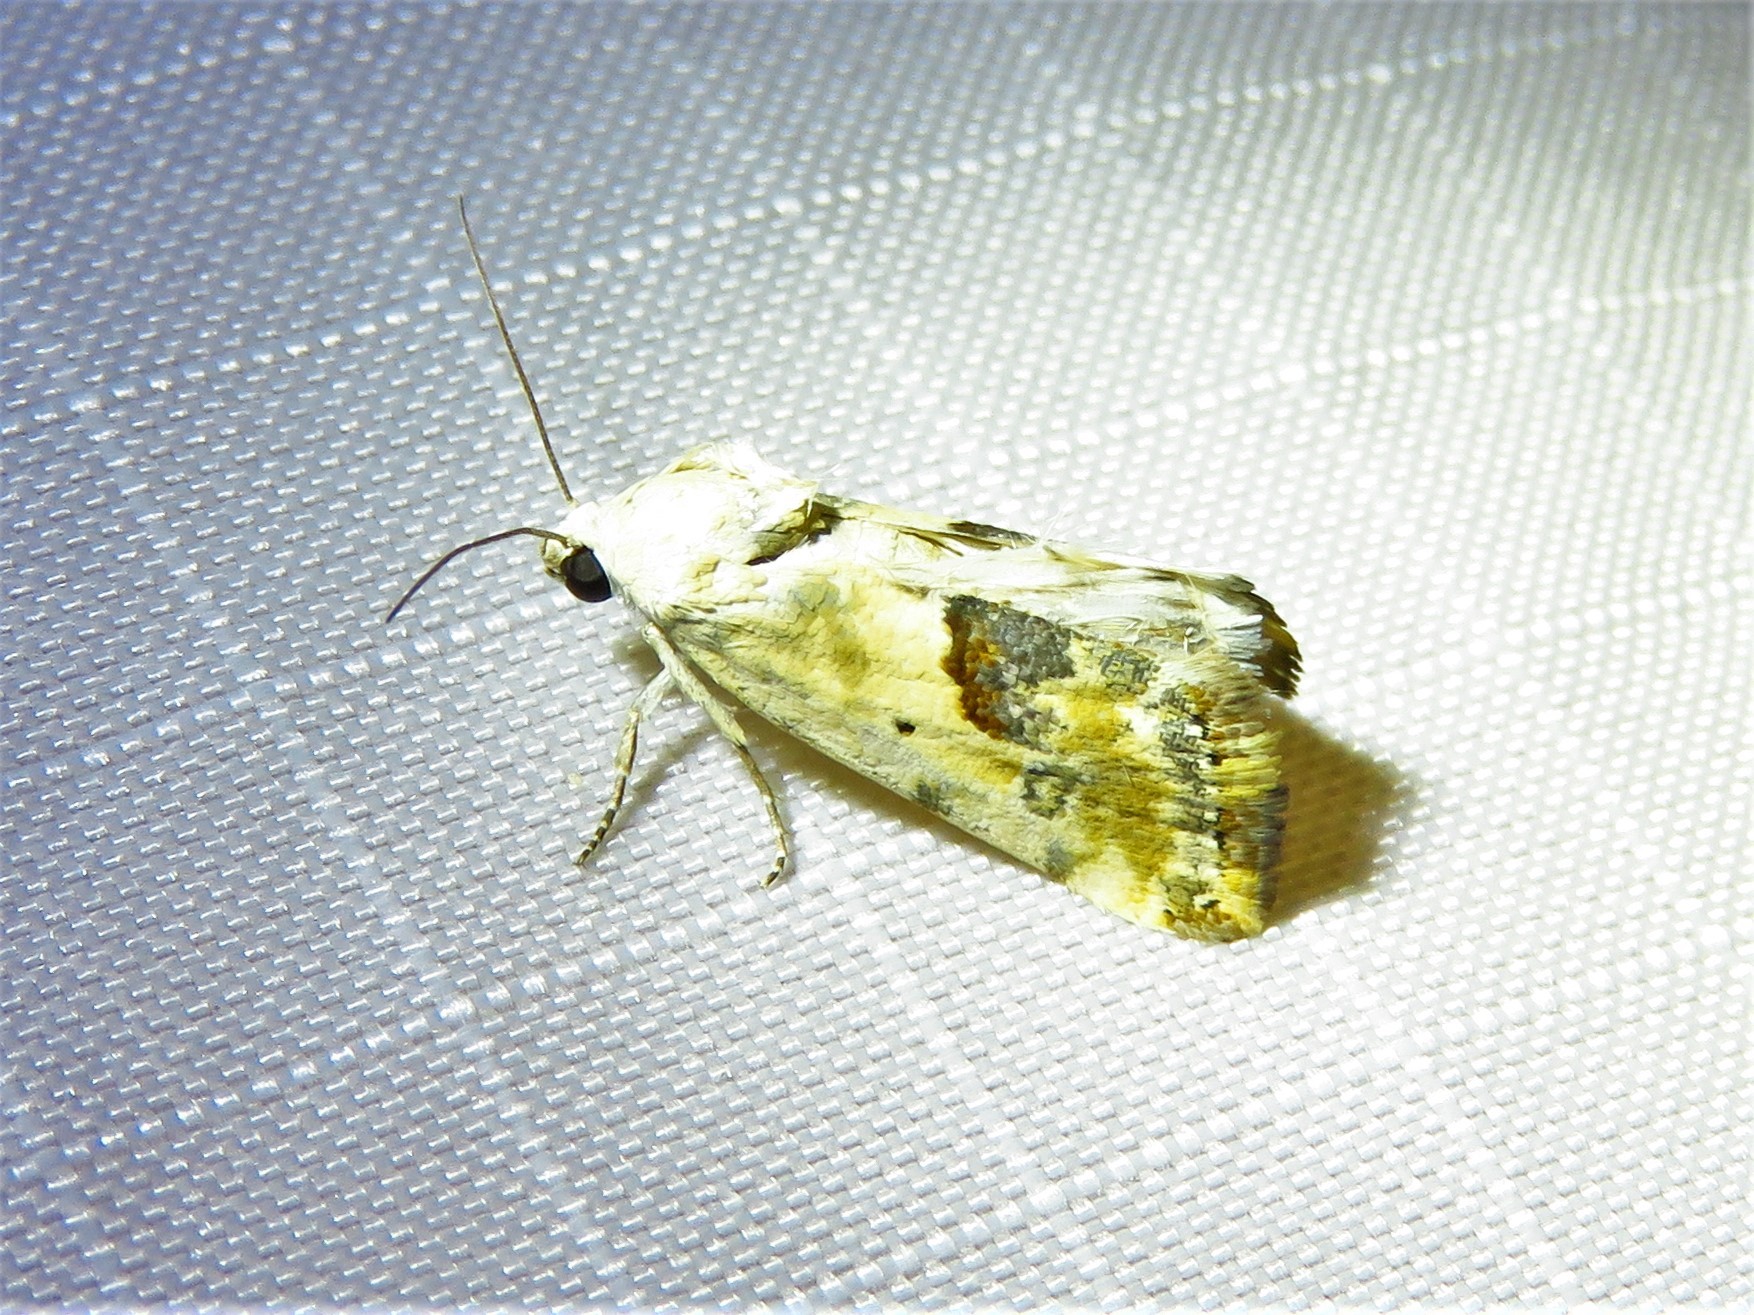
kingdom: Animalia
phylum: Arthropoda
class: Insecta
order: Lepidoptera
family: Noctuidae
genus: Acontia
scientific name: Acontia candefacta
